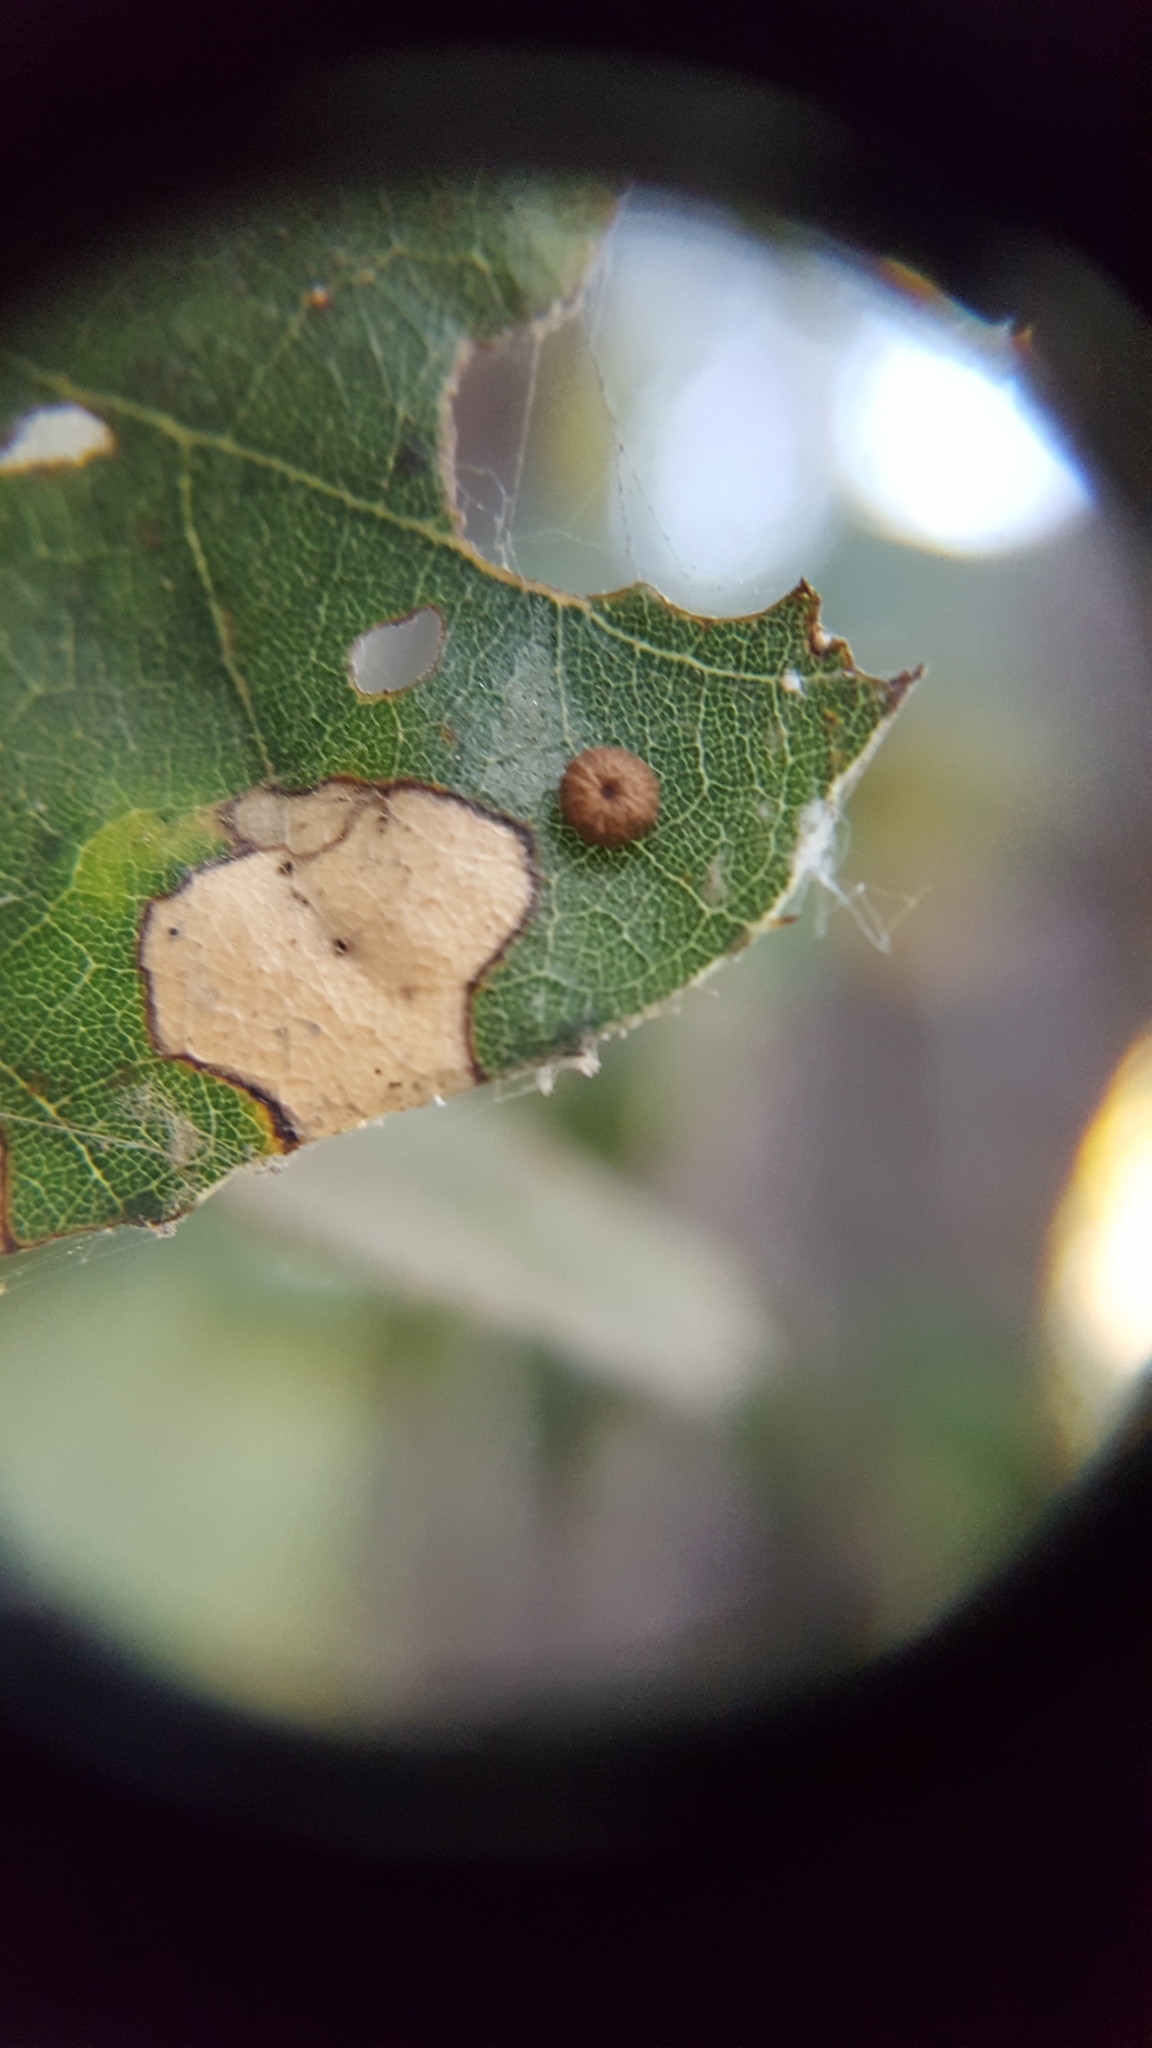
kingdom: Animalia
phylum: Arthropoda
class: Insecta
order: Hymenoptera
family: Cynipidae
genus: Dryocosmus
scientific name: Dryocosmus
